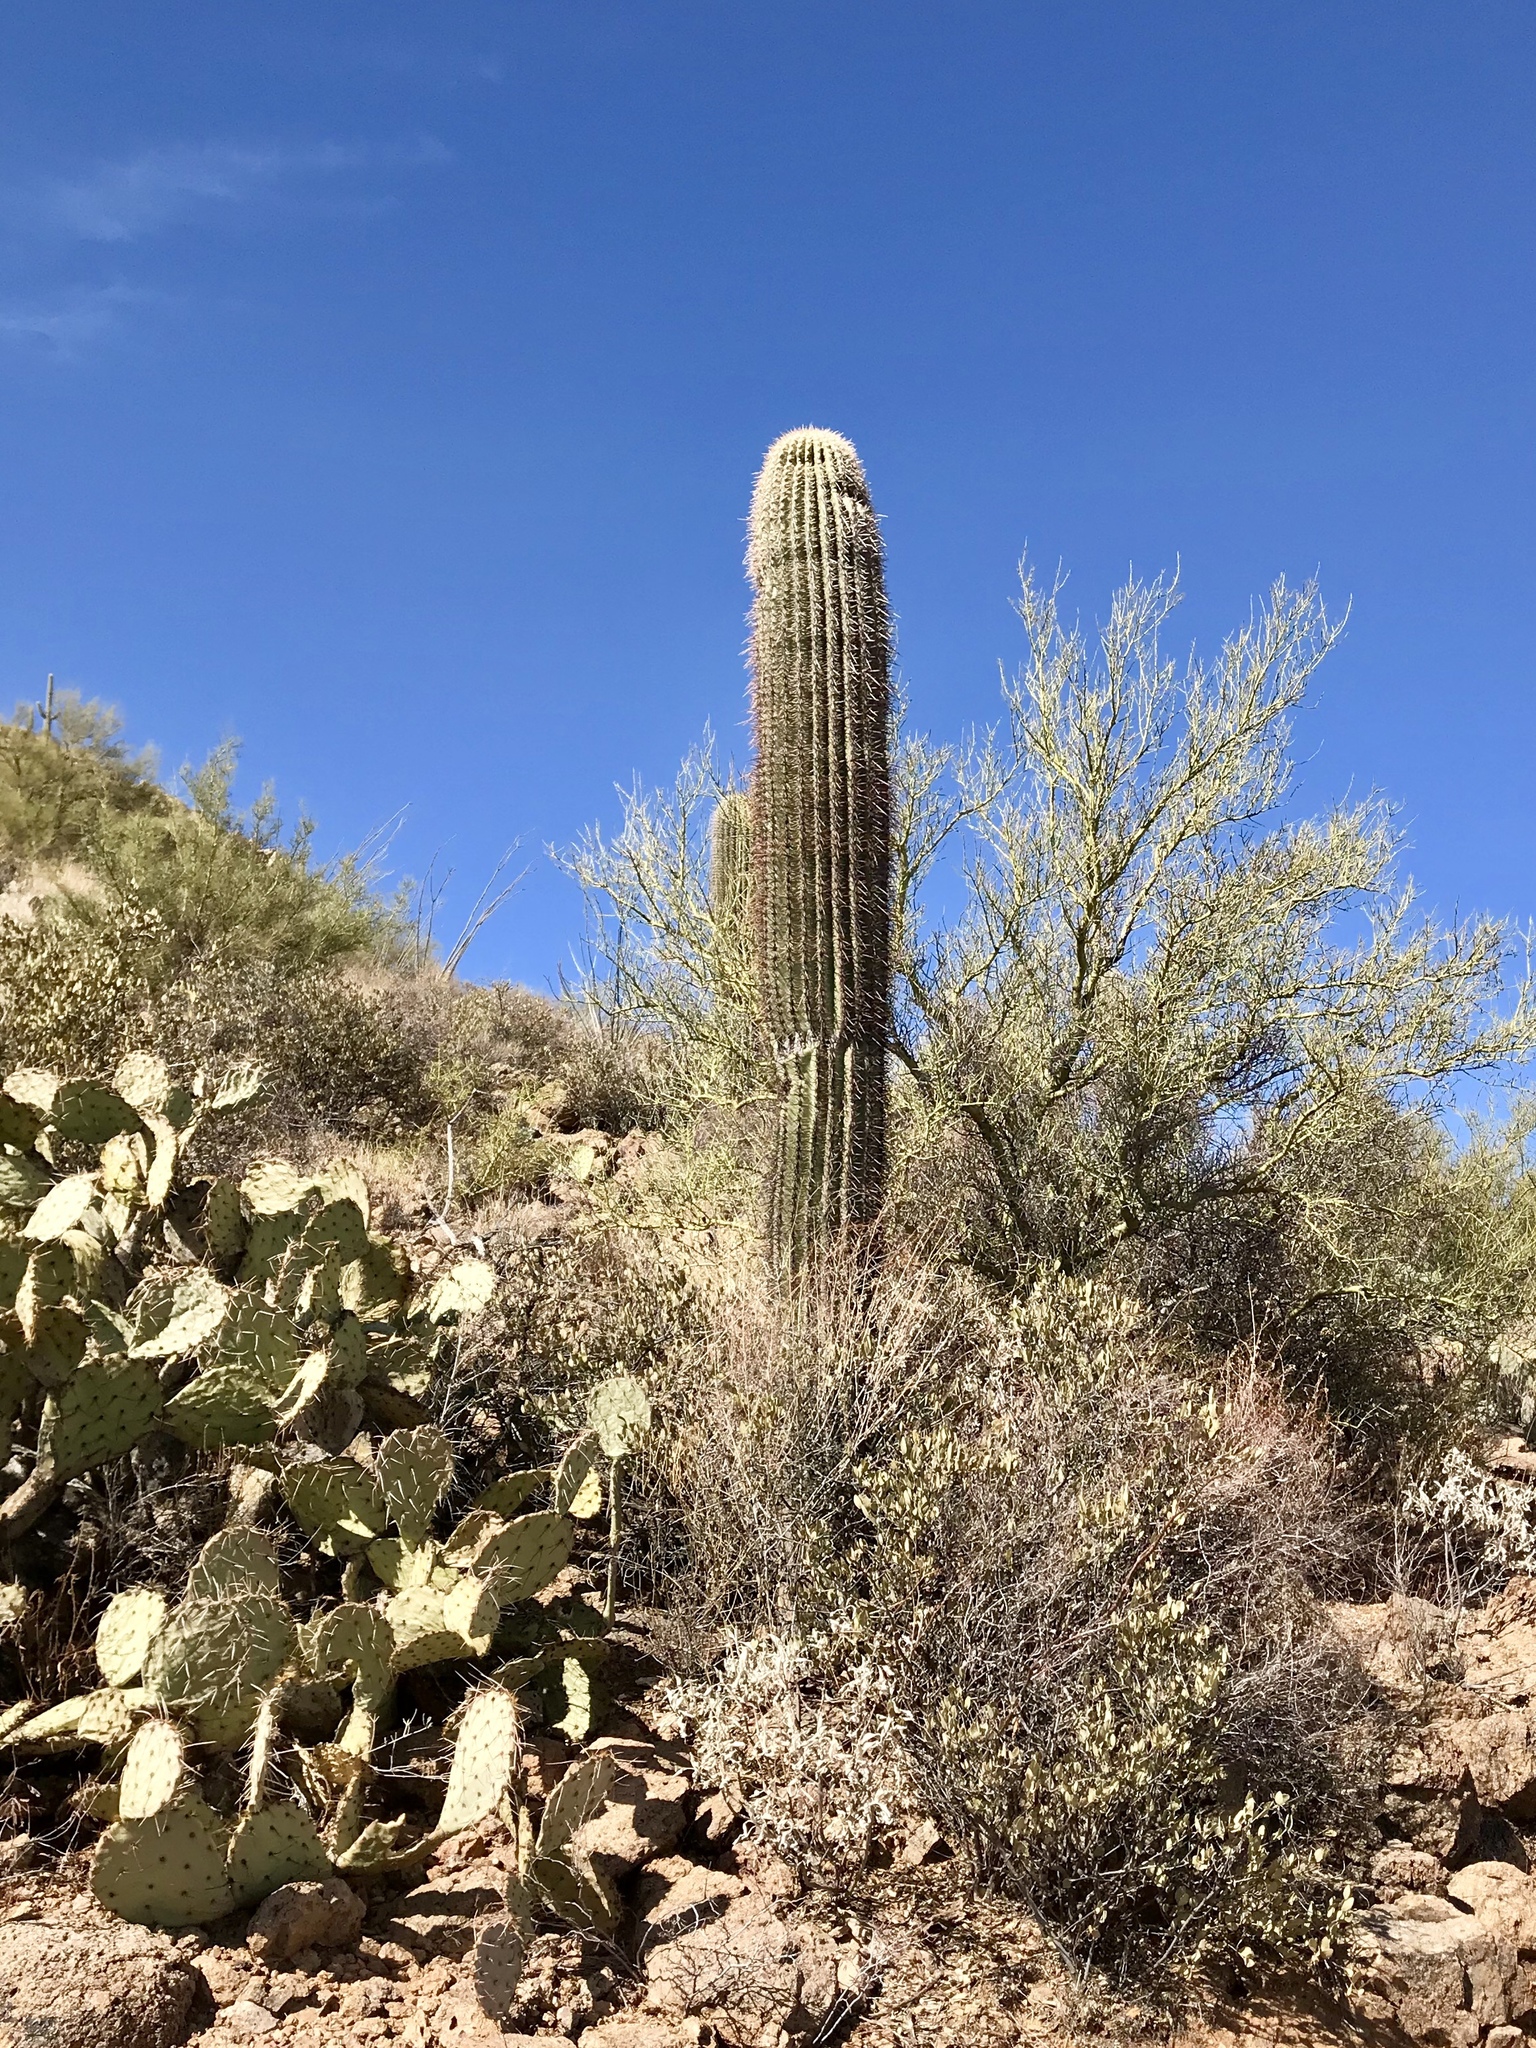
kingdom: Plantae
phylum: Tracheophyta
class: Magnoliopsida
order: Caryophyllales
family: Cactaceae
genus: Carnegiea
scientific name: Carnegiea gigantea
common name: Saguaro
